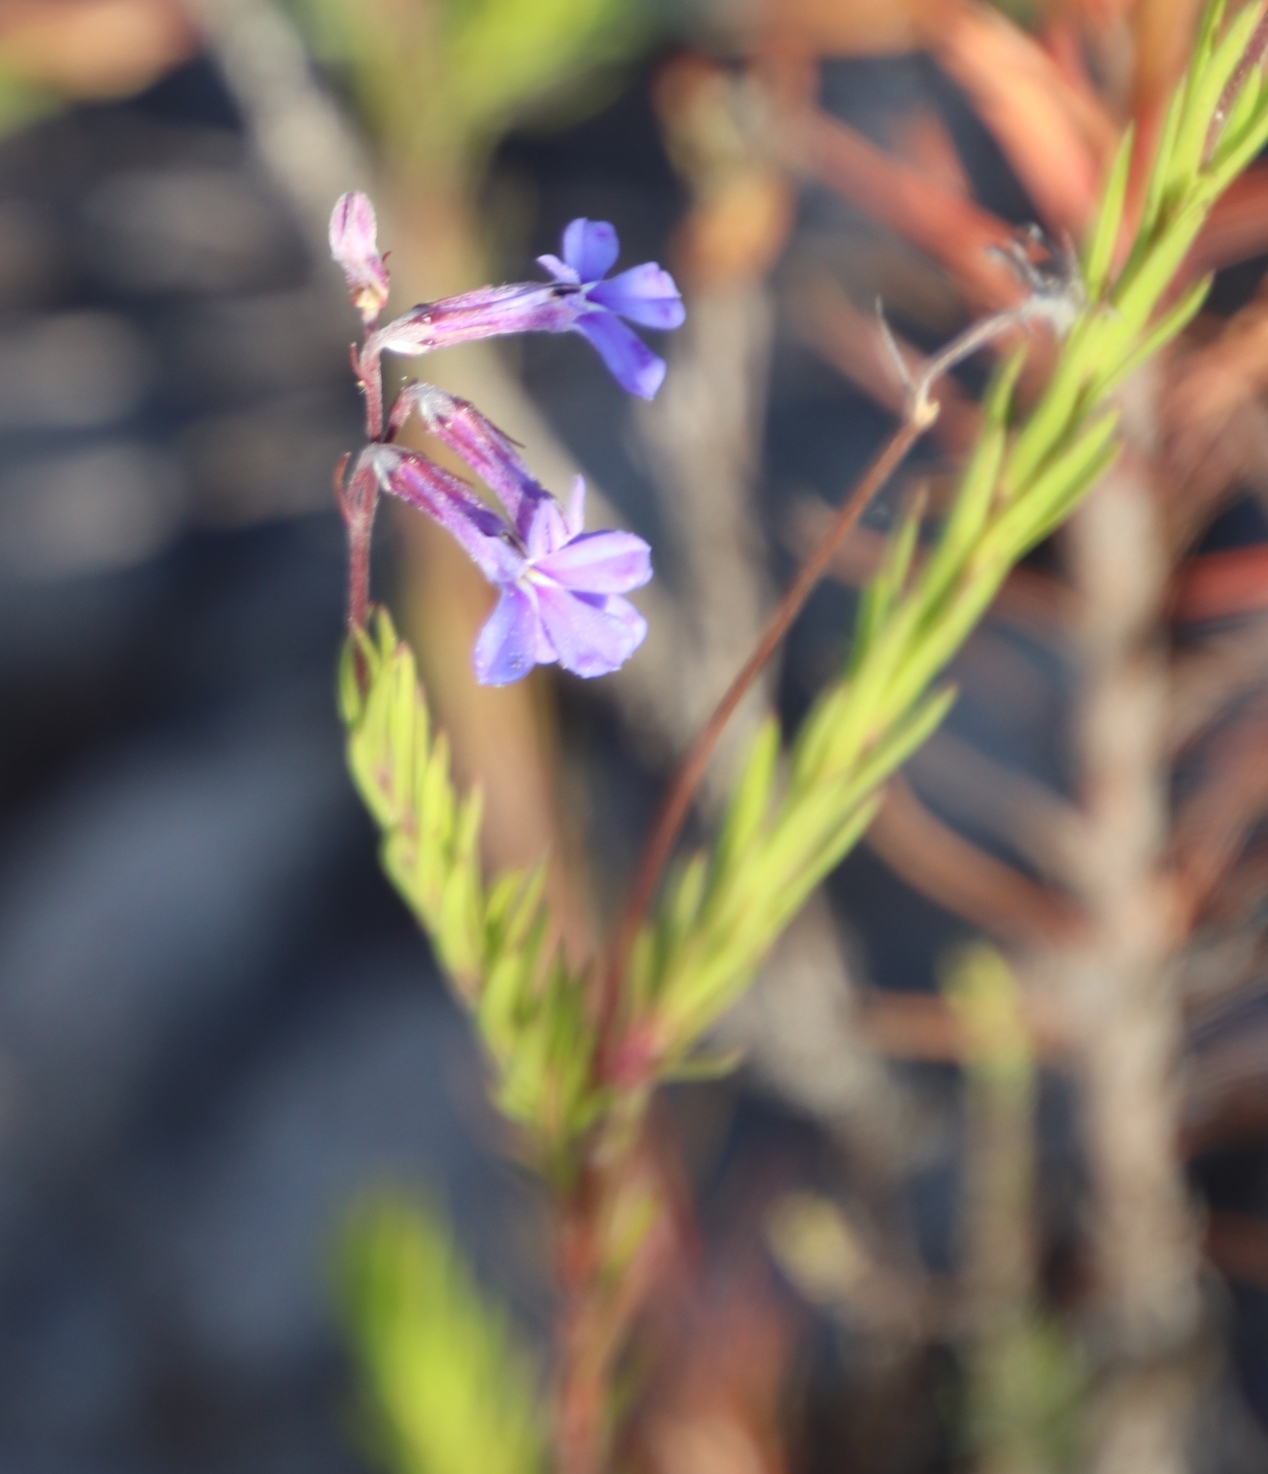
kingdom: Plantae
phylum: Tracheophyta
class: Magnoliopsida
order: Asterales
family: Campanulaceae
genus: Lobelia
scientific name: Lobelia pinifolia
